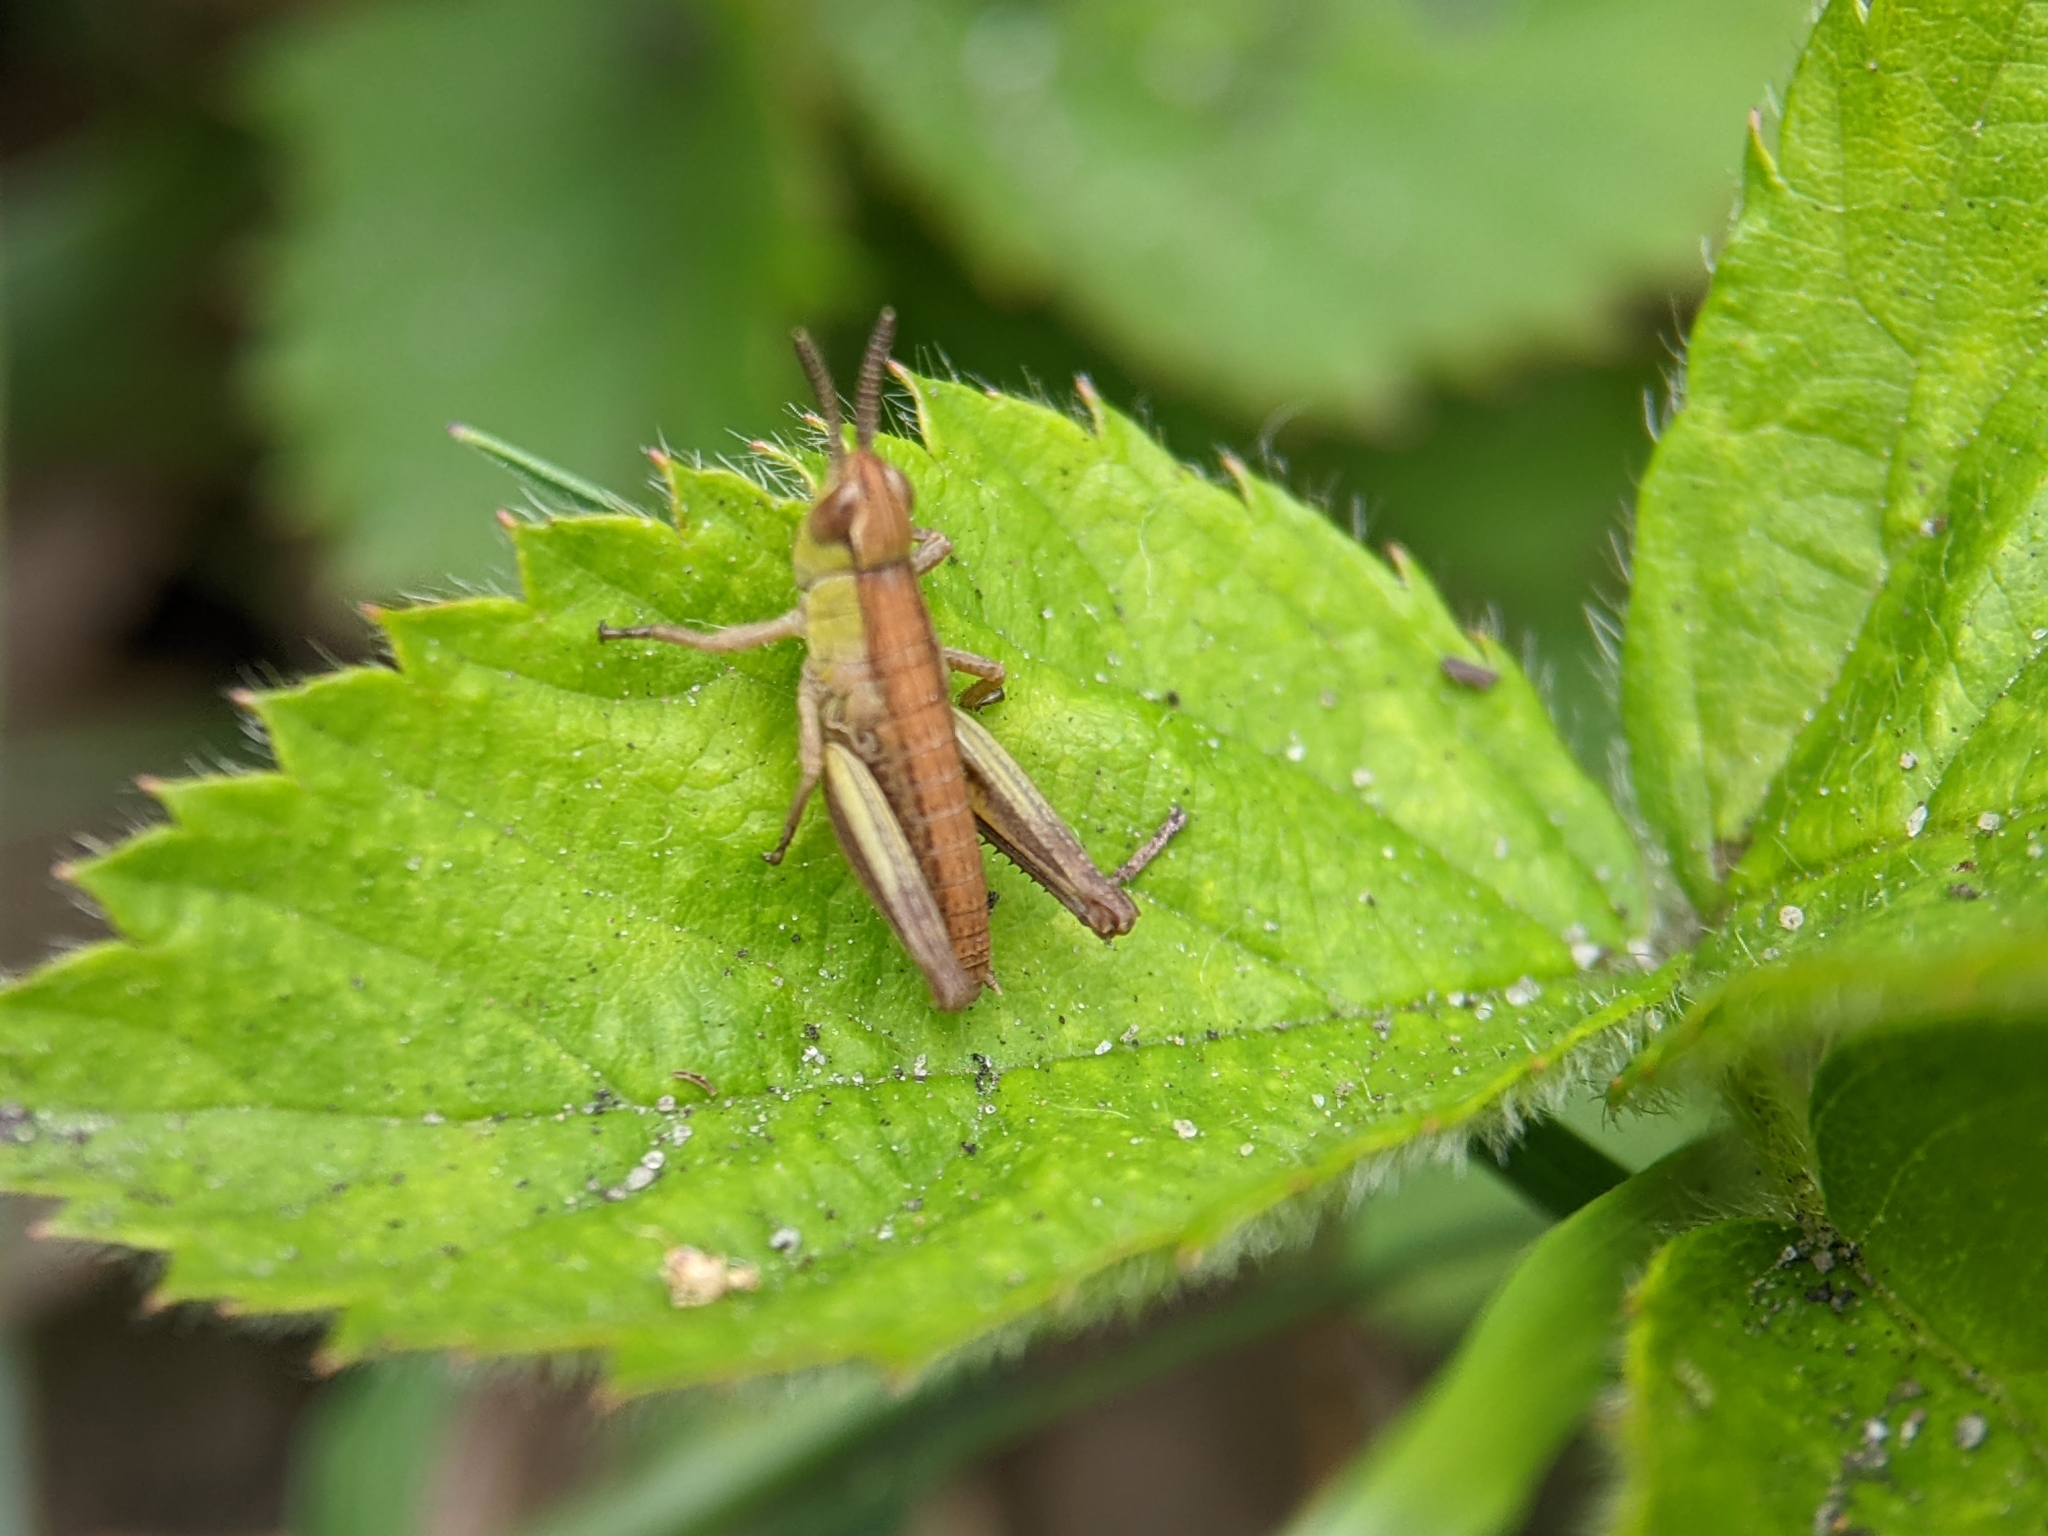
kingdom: Animalia
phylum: Arthropoda
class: Insecta
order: Orthoptera
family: Acrididae
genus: Pseudochorthippus
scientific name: Pseudochorthippus parallelus
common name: Meadow grasshopper
